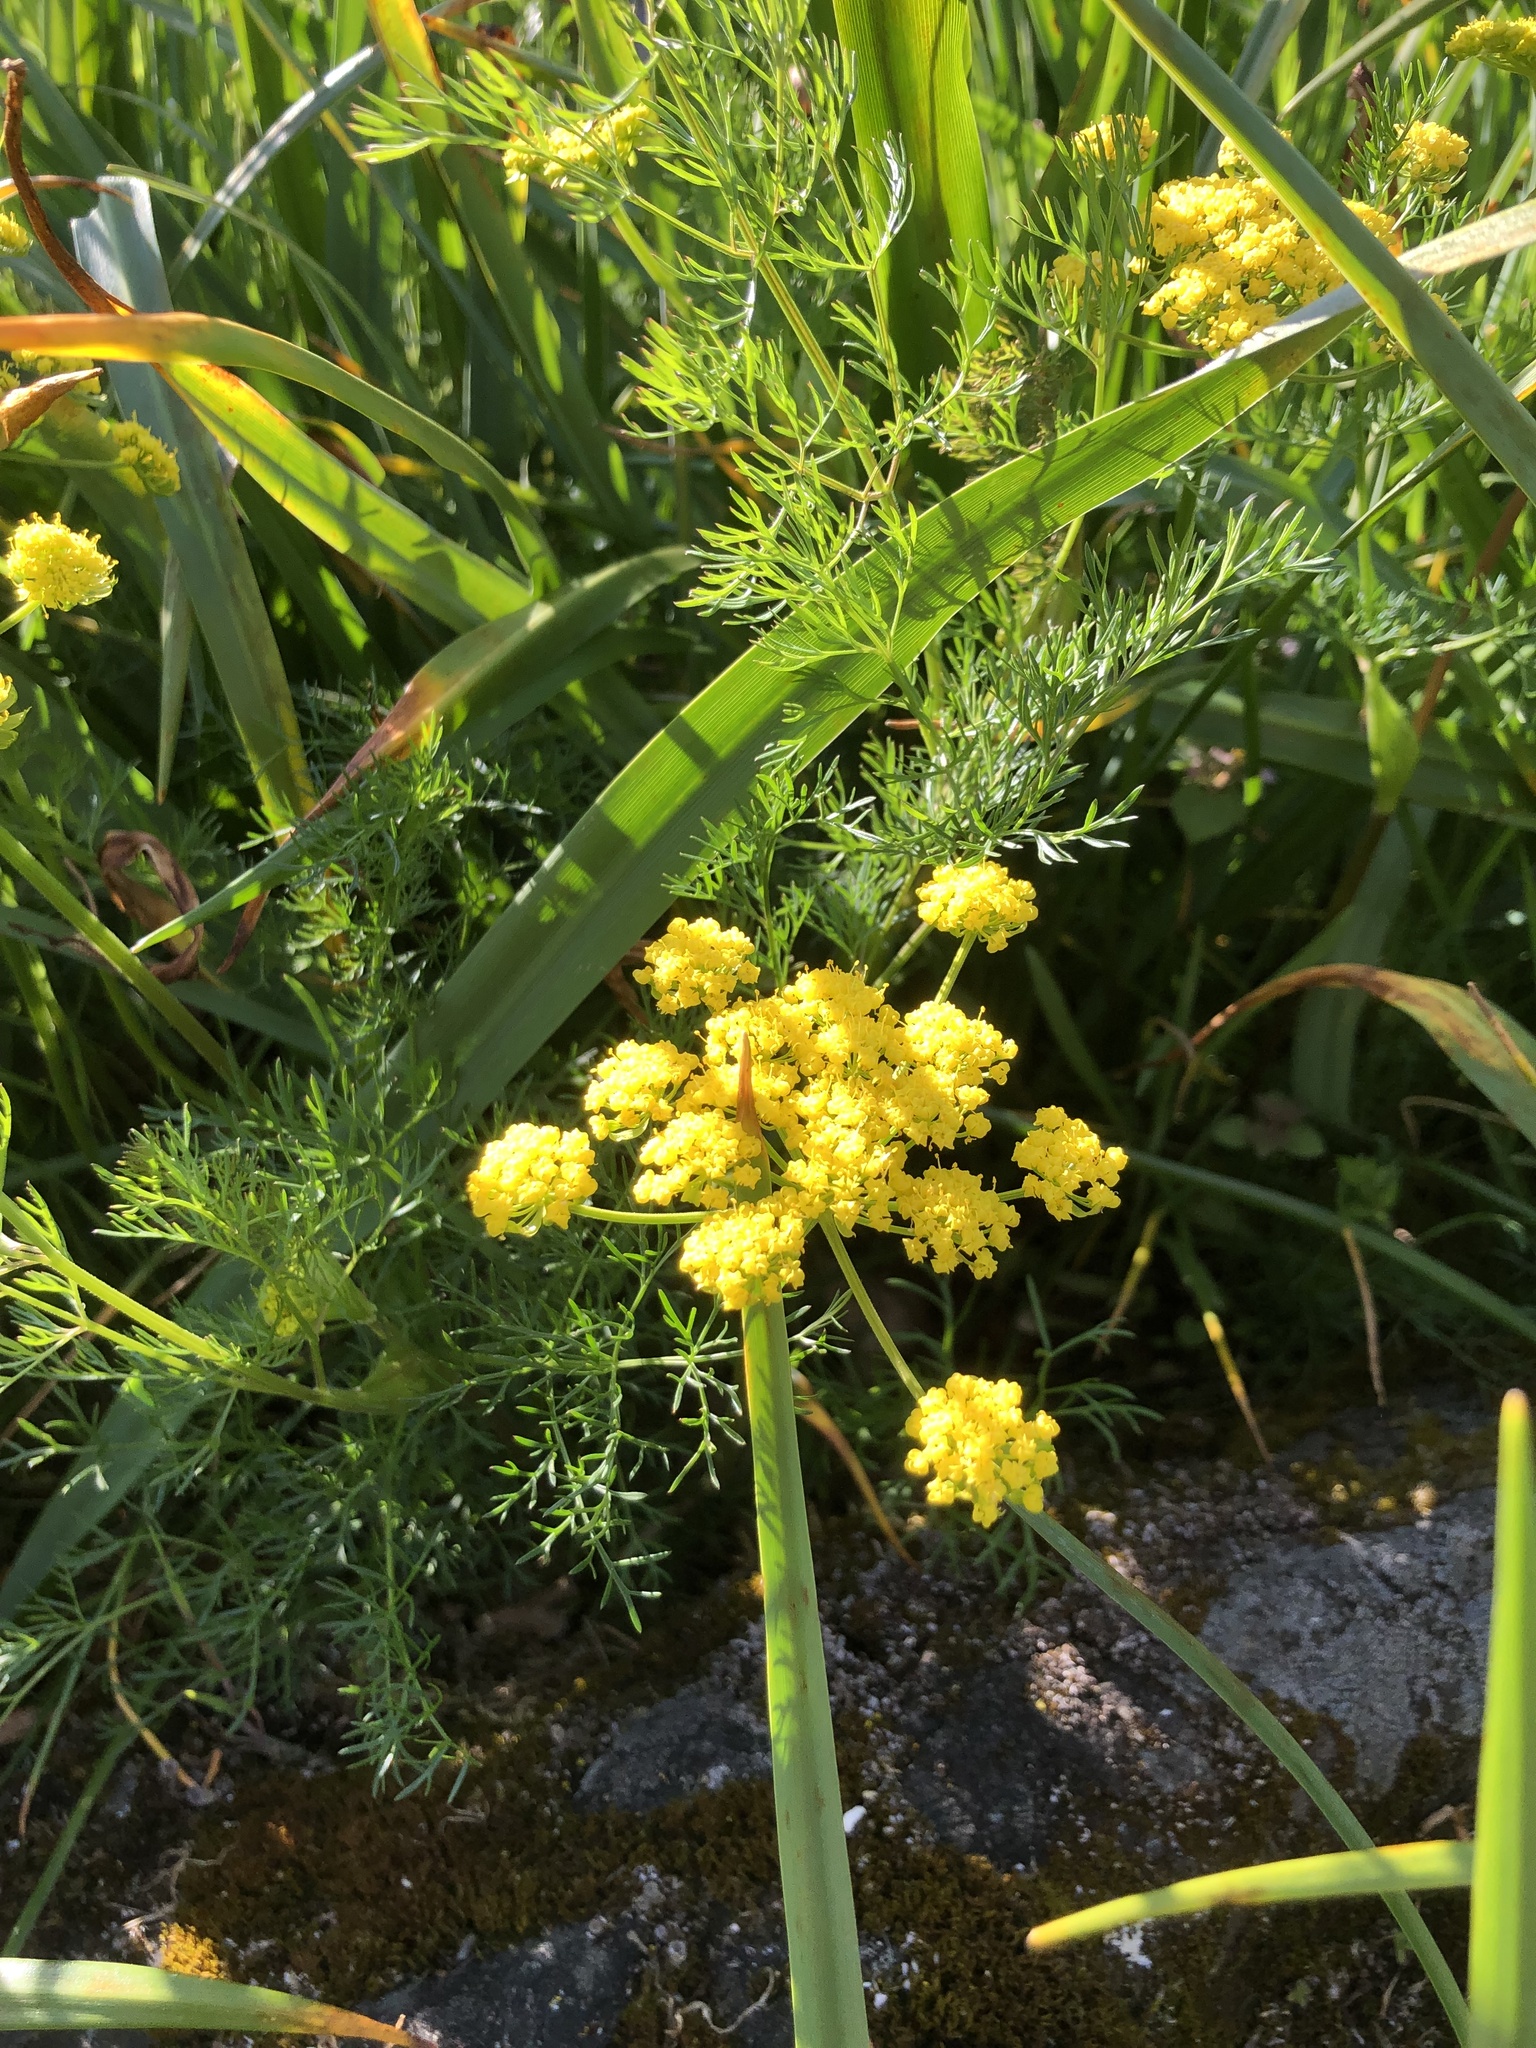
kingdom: Plantae
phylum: Tracheophyta
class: Magnoliopsida
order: Apiales
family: Apiaceae
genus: Lomatium
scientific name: Lomatium utriculatum
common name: Fine-leaf desert-parsley
